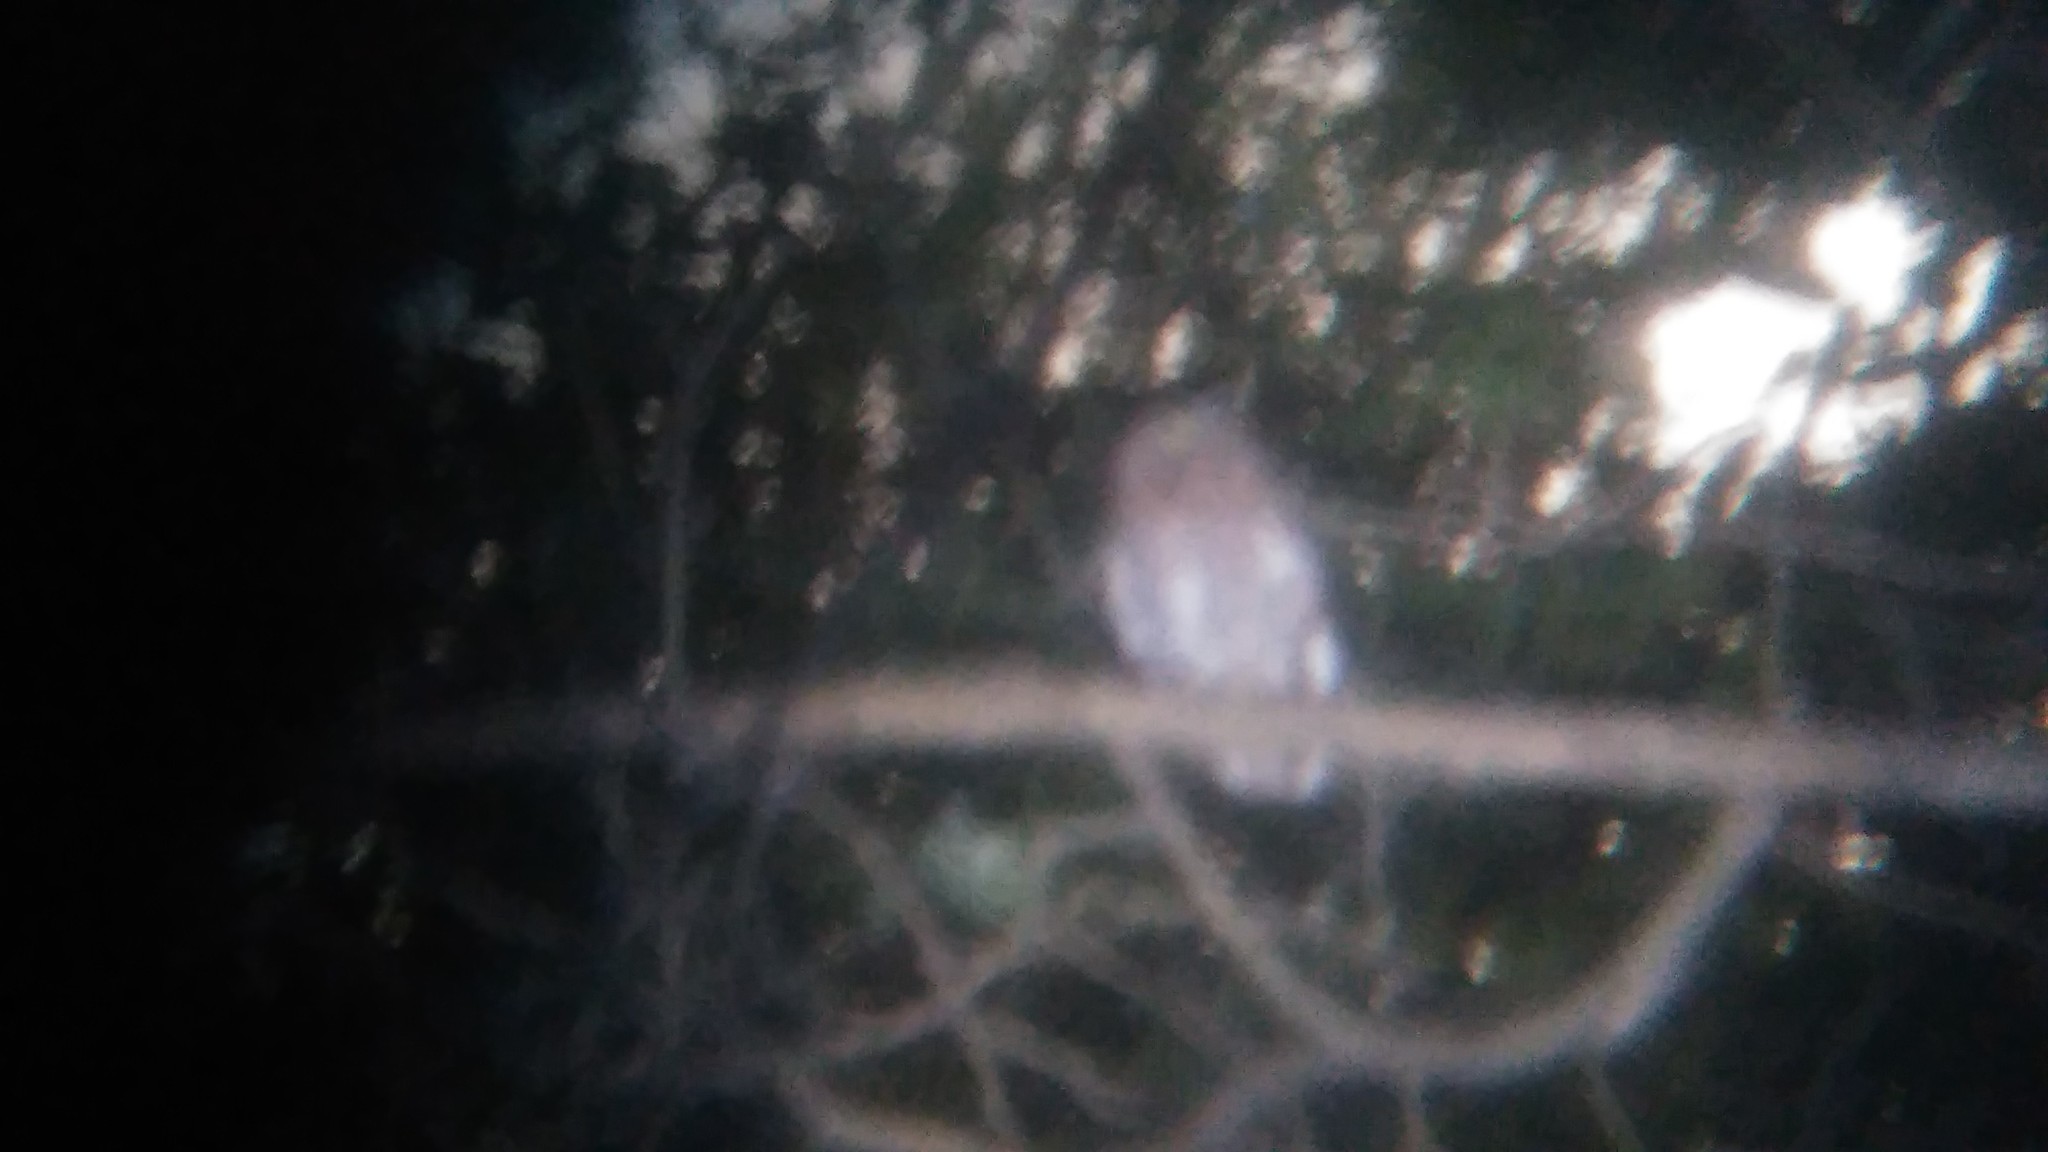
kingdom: Animalia
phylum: Chordata
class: Aves
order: Strigiformes
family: Strigidae
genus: Megascops
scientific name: Megascops choliba
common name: Tropical screech-owl
